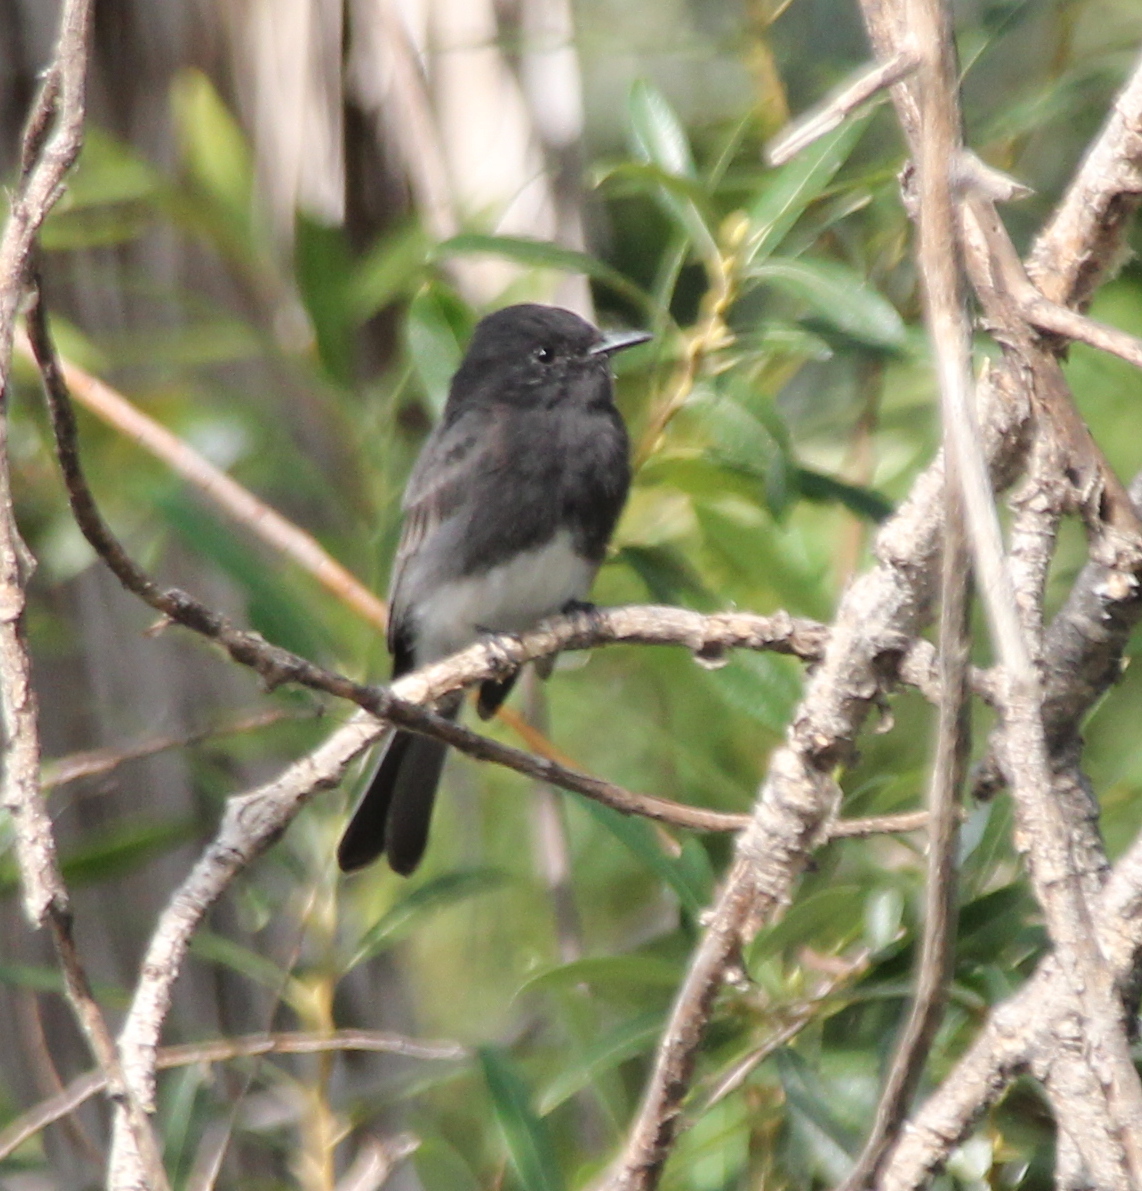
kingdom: Animalia
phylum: Chordata
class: Aves
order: Passeriformes
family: Tyrannidae
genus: Sayornis
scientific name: Sayornis nigricans
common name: Black phoebe
